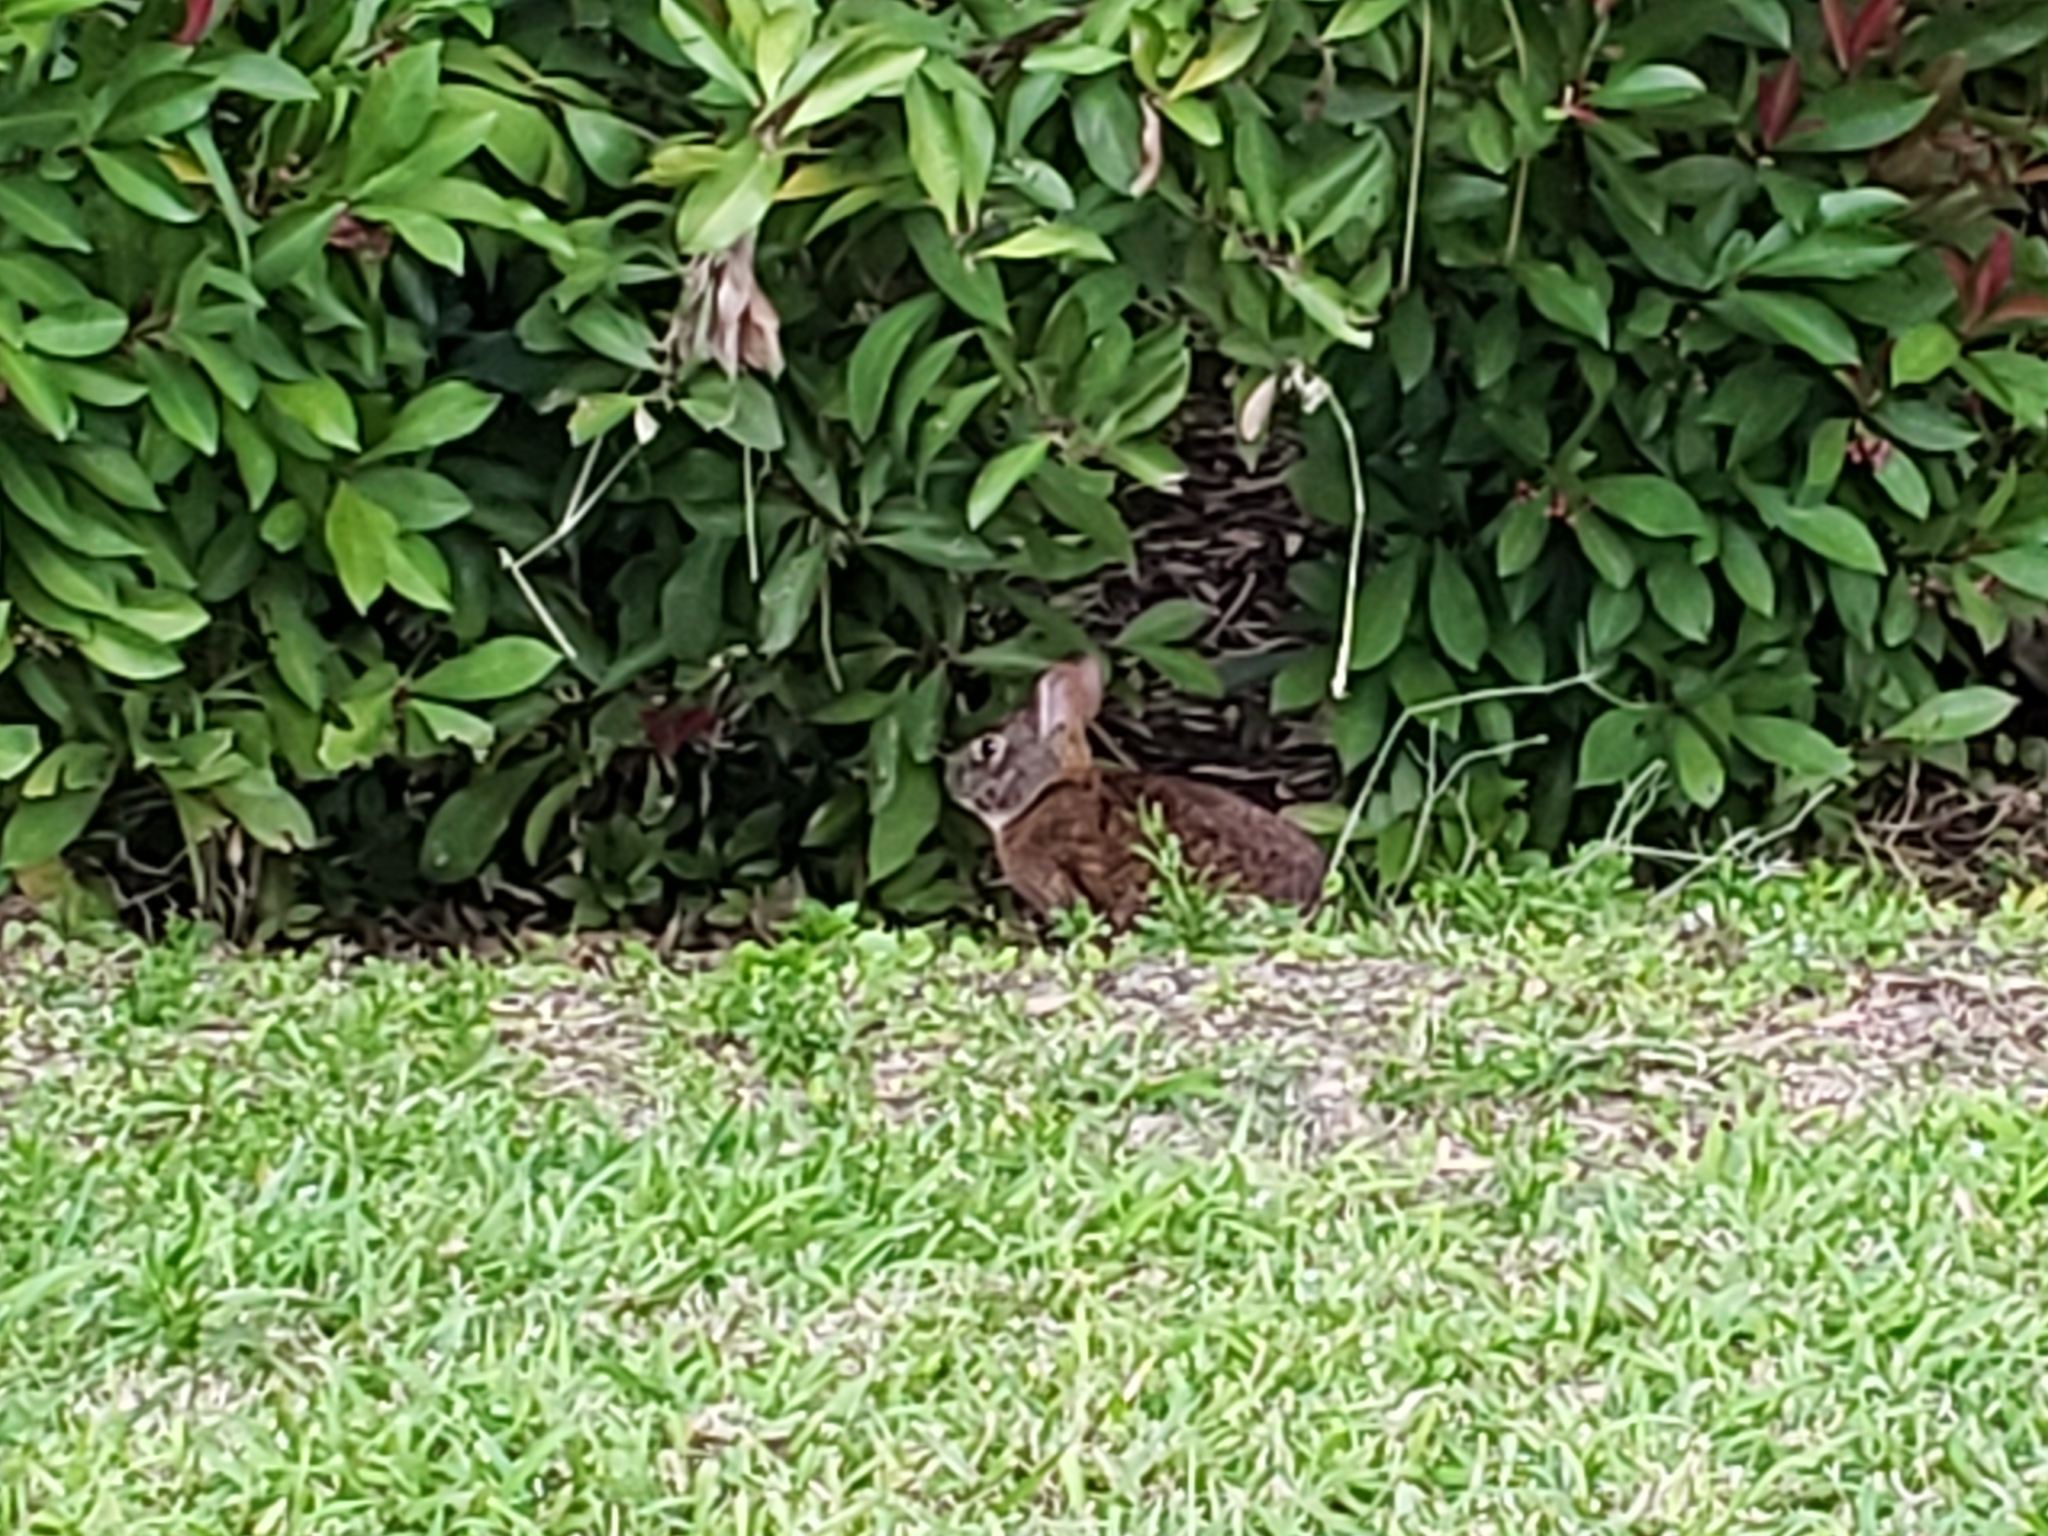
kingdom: Animalia
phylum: Chordata
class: Mammalia
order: Lagomorpha
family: Leporidae
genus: Sylvilagus
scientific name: Sylvilagus floridanus
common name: Eastern cottontail
